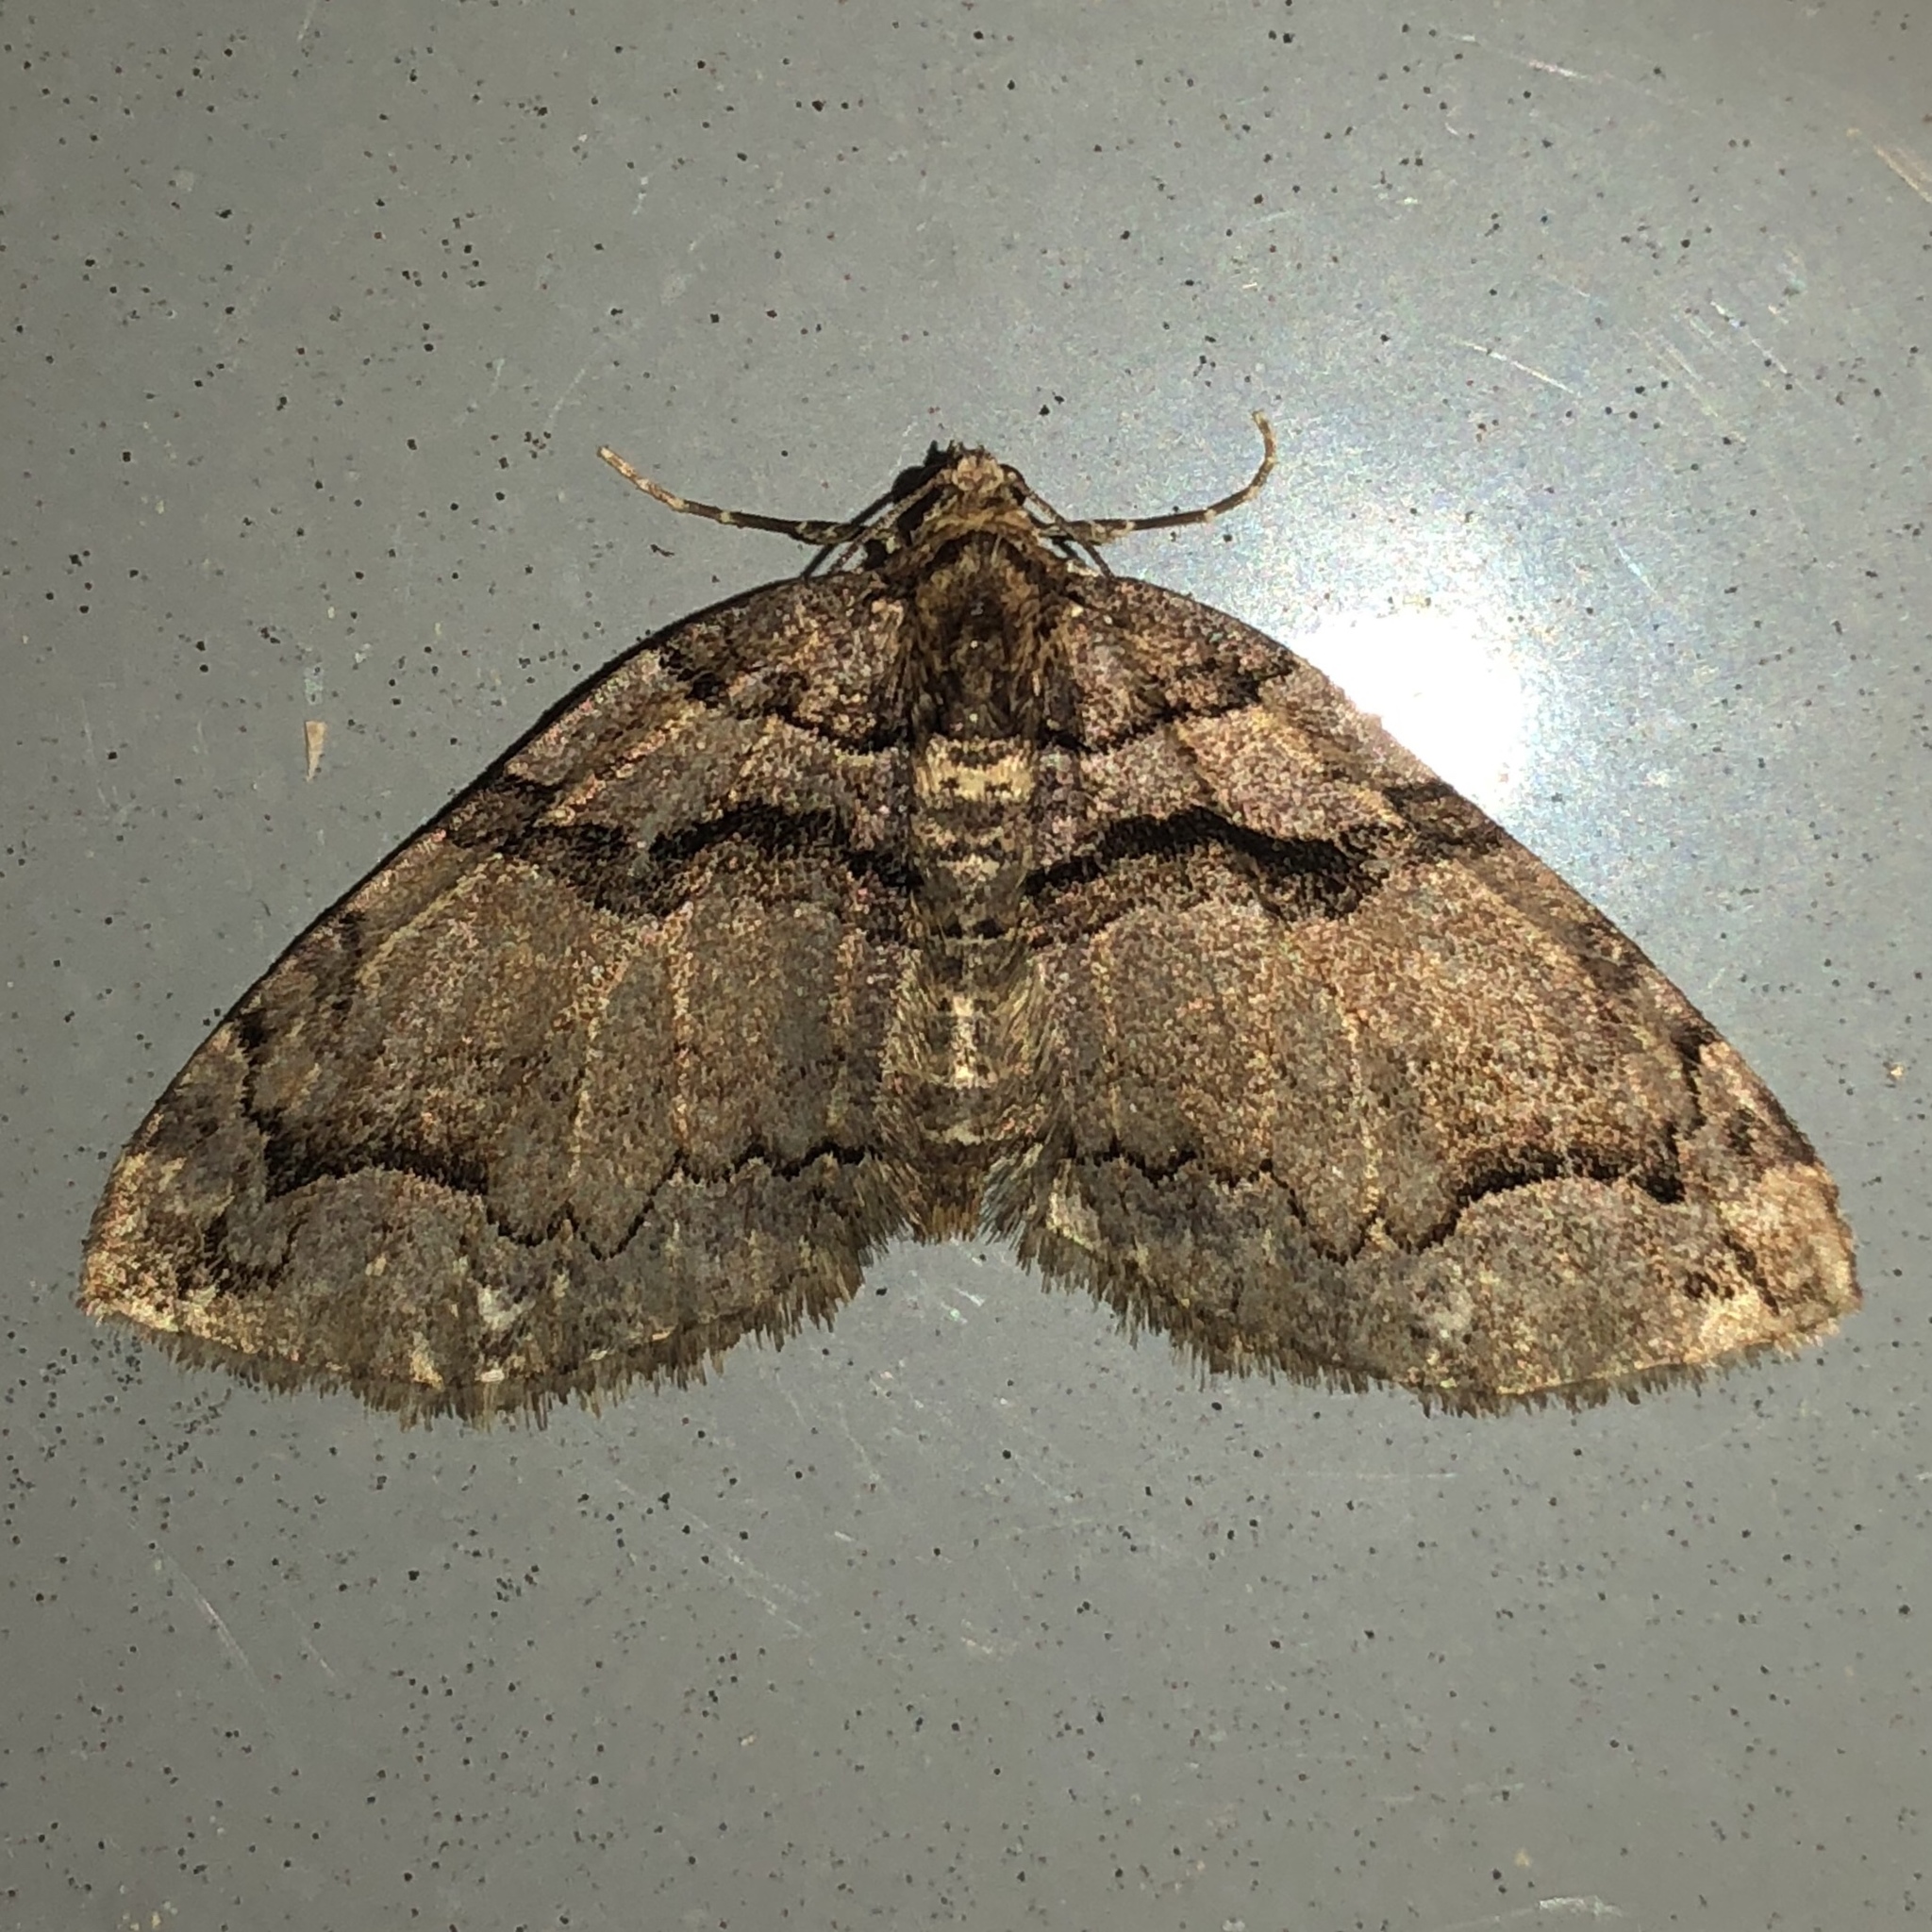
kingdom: Animalia
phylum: Arthropoda
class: Insecta
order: Lepidoptera
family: Geometridae
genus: Anticlea
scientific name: Anticlea vasiliata
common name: Variable carpet
